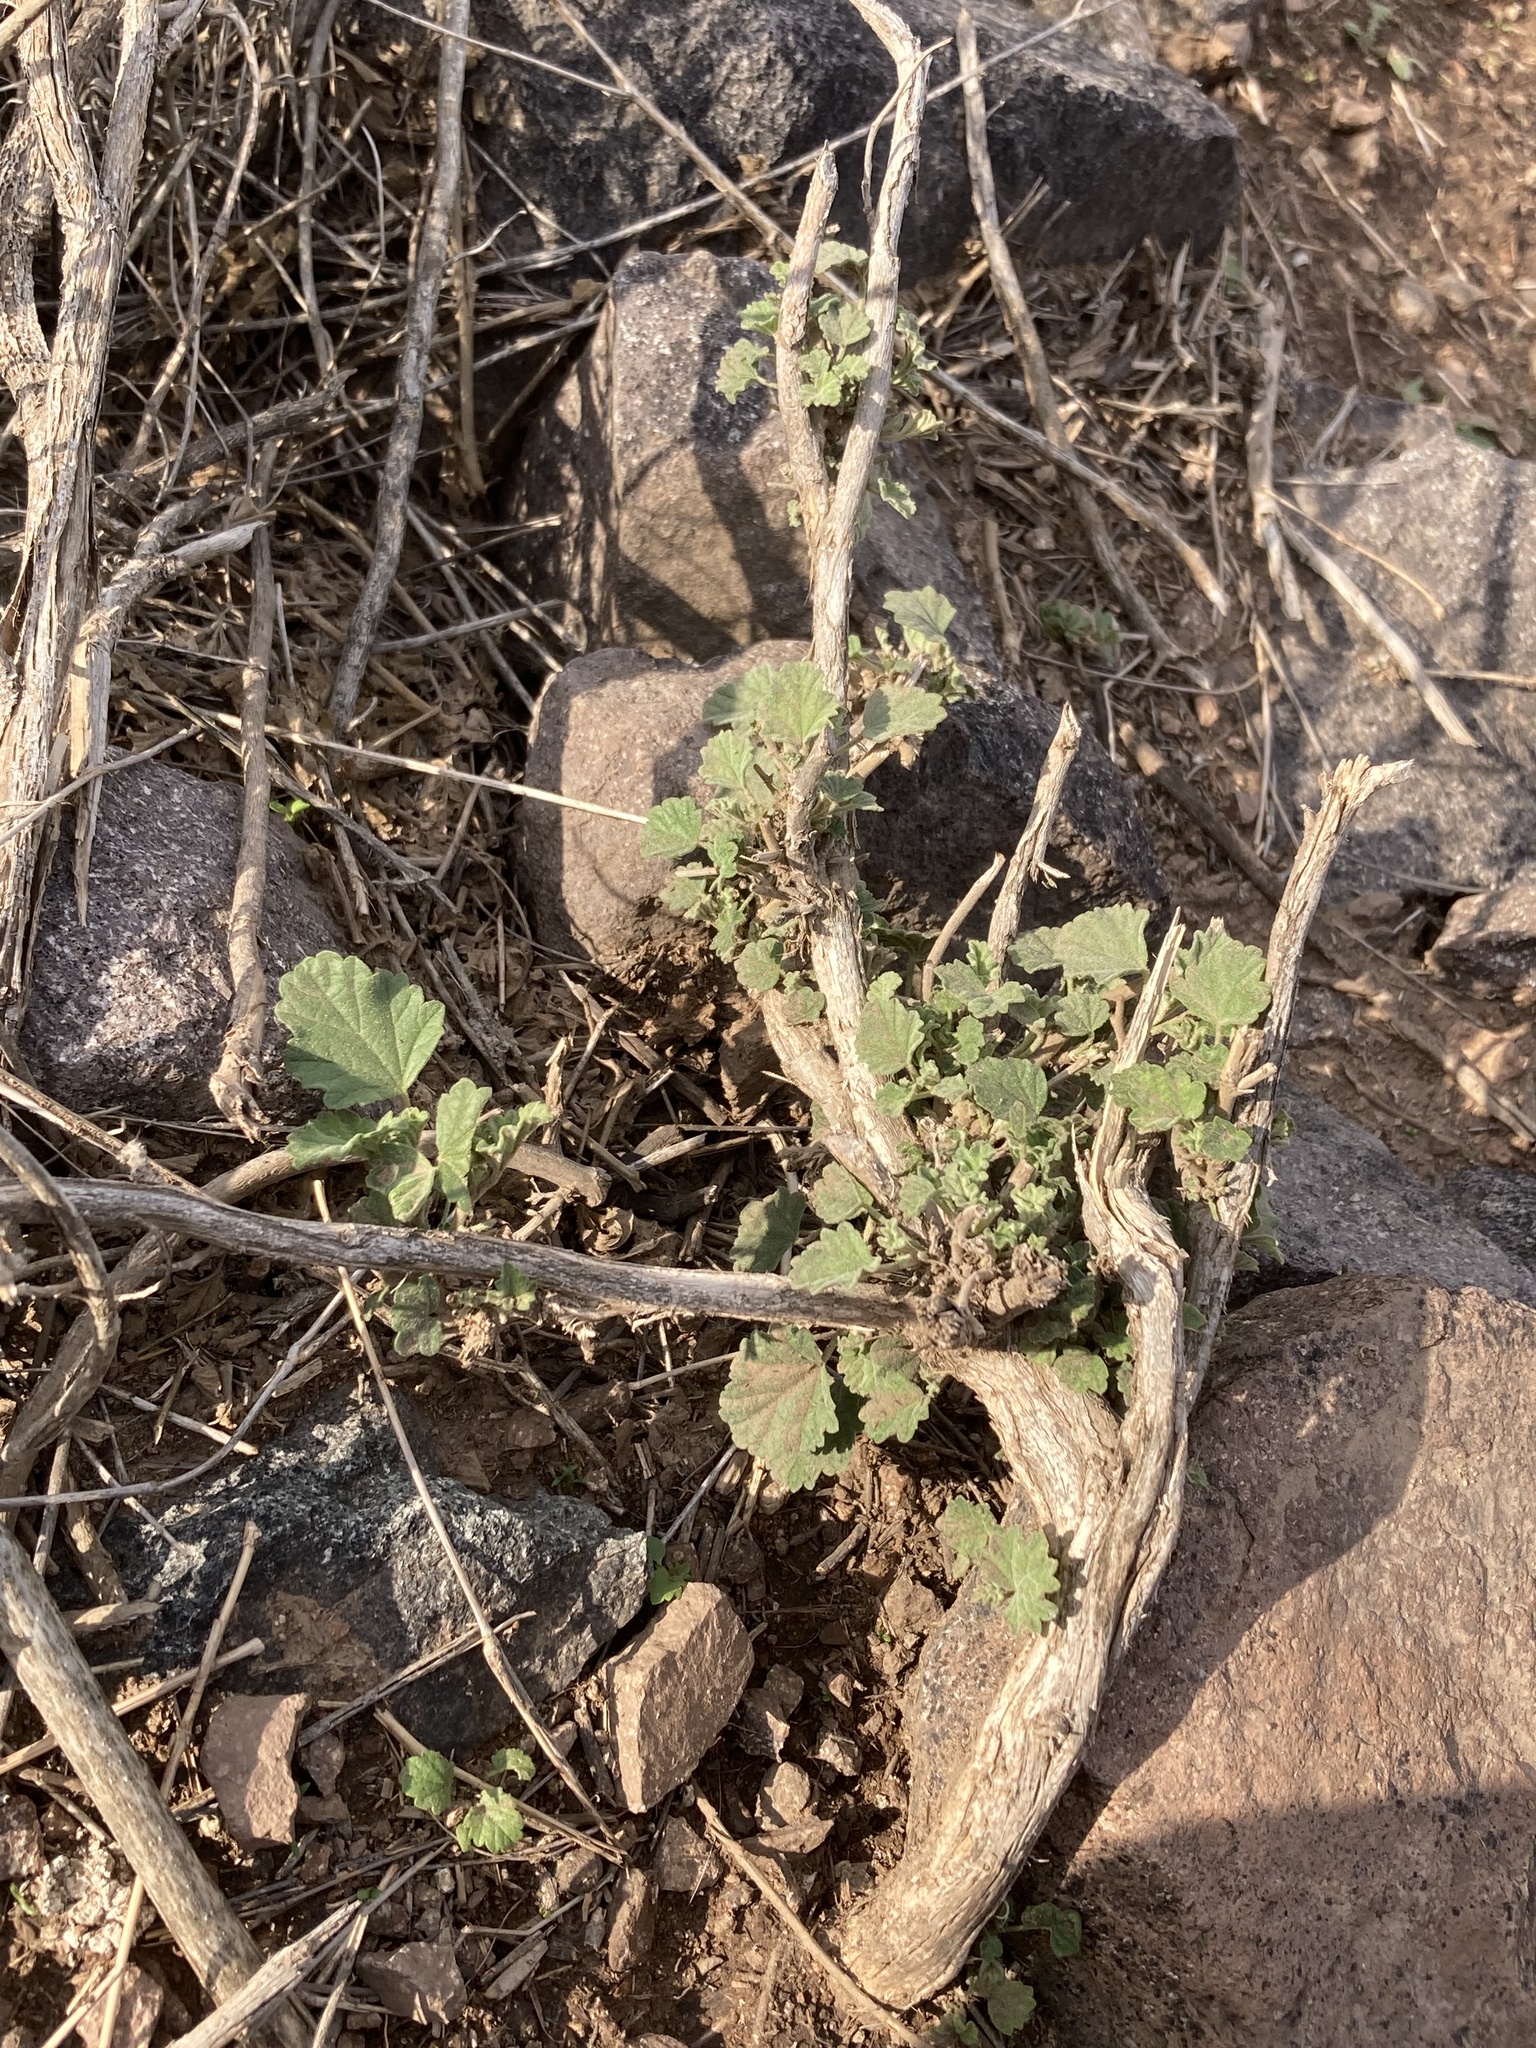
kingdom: Plantae
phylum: Tracheophyta
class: Magnoliopsida
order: Malvales
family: Malvaceae
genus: Sphaeralcea
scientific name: Sphaeralcea obtusiloba
